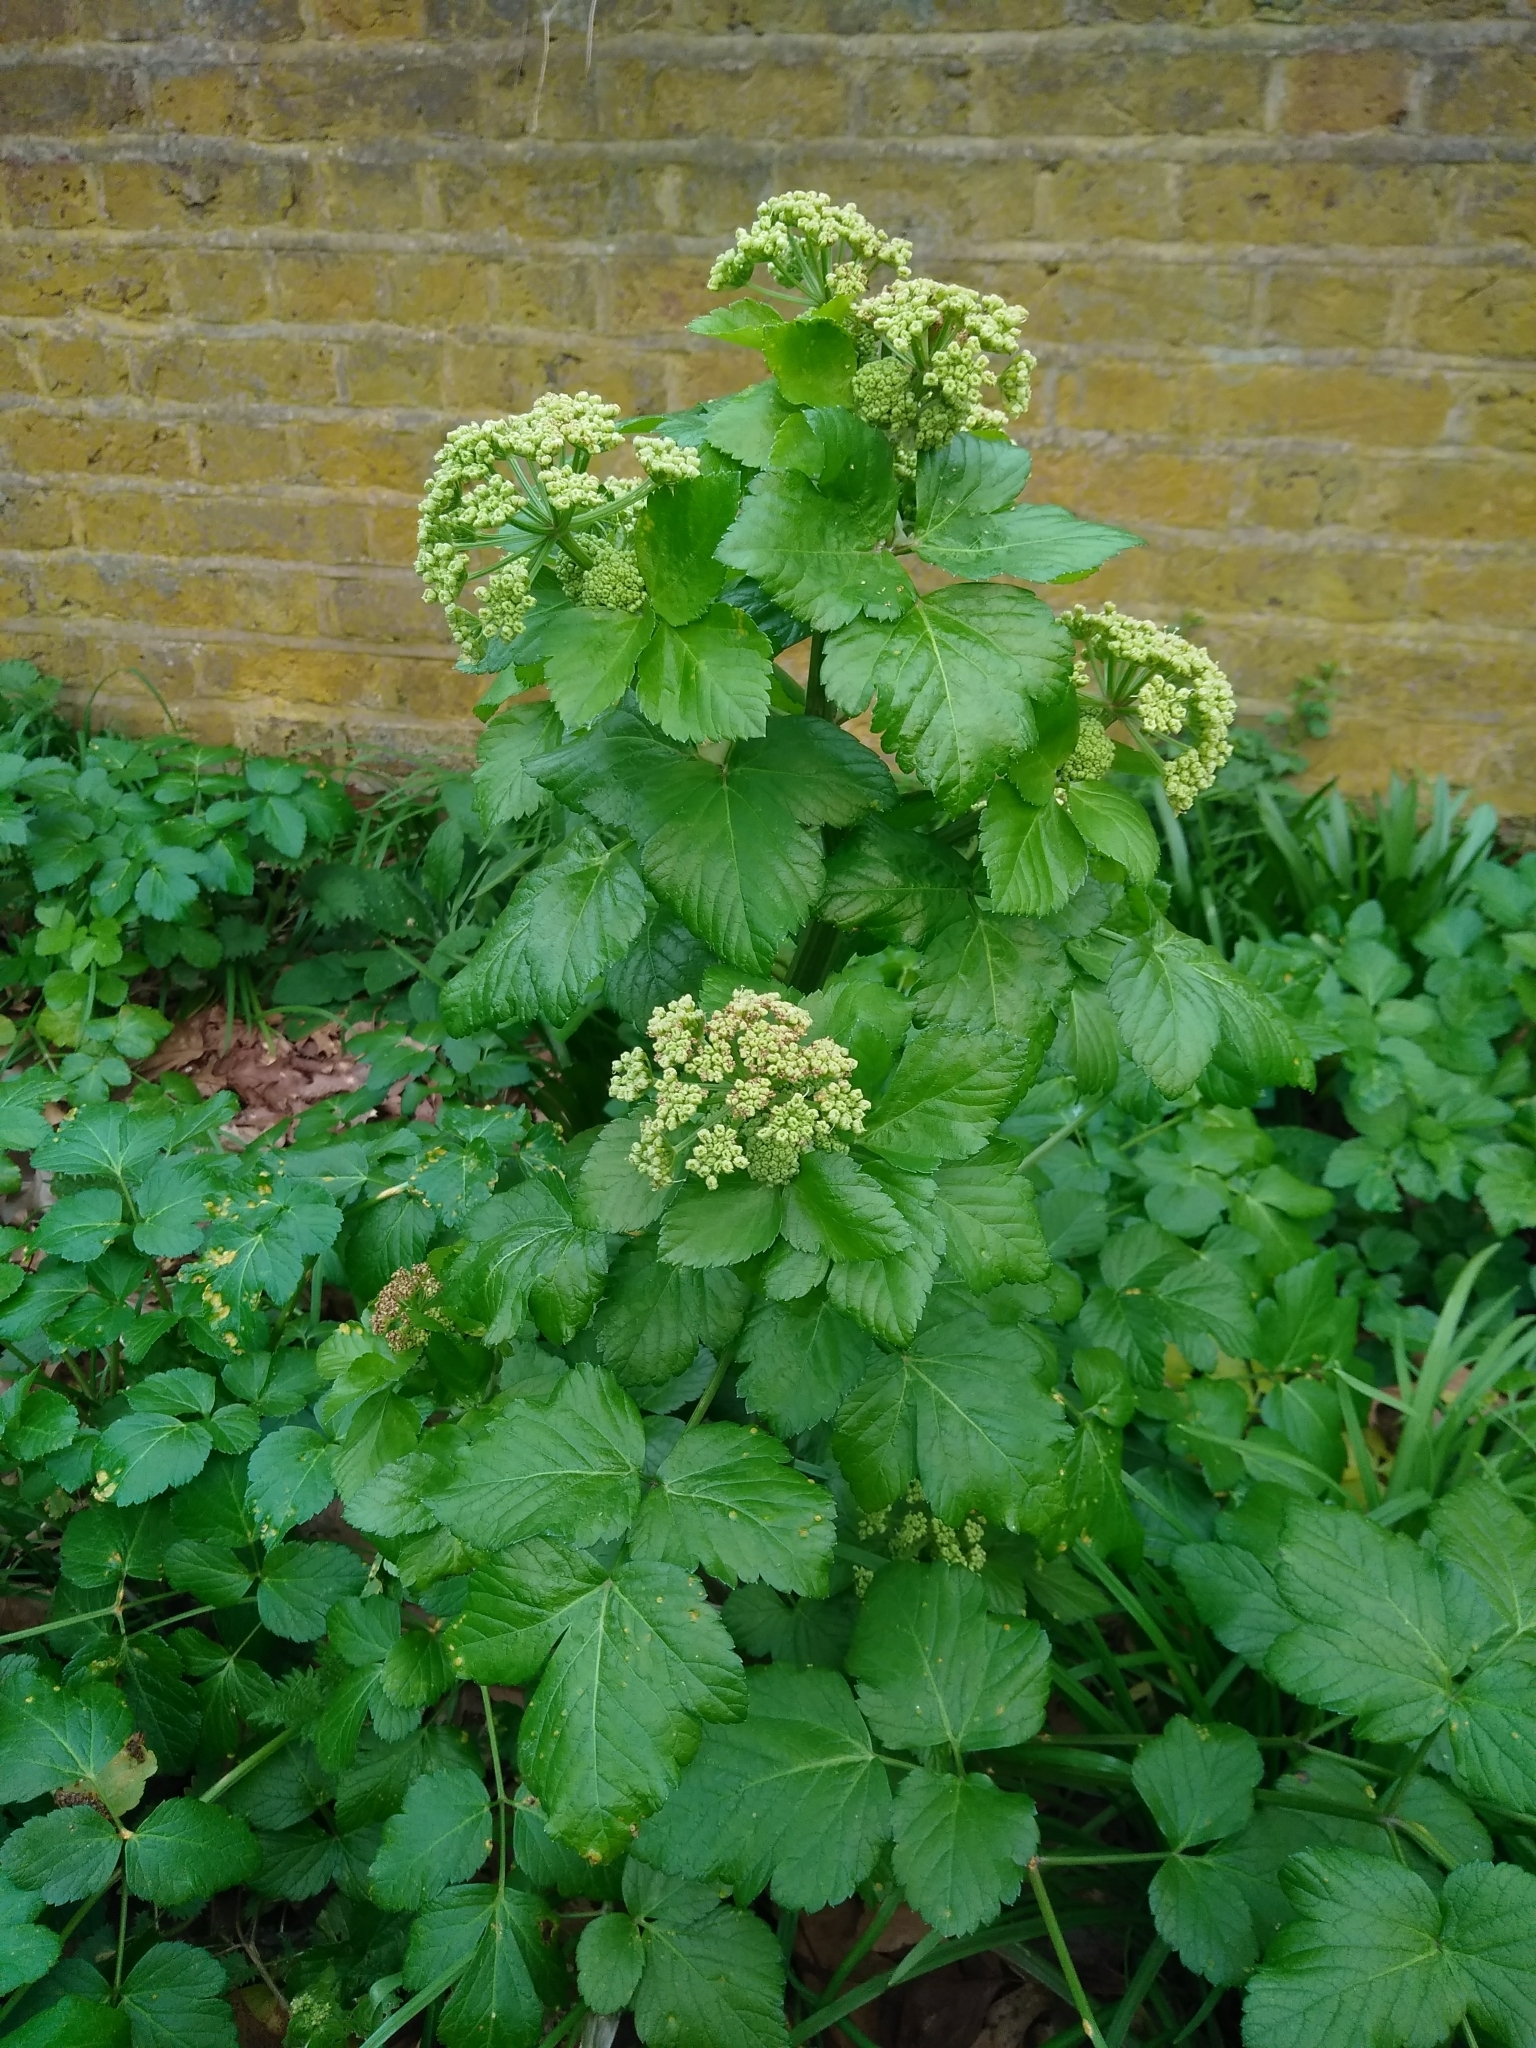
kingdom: Plantae
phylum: Tracheophyta
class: Magnoliopsida
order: Apiales
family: Apiaceae
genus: Smyrnium
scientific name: Smyrnium olusatrum
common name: Alexanders
